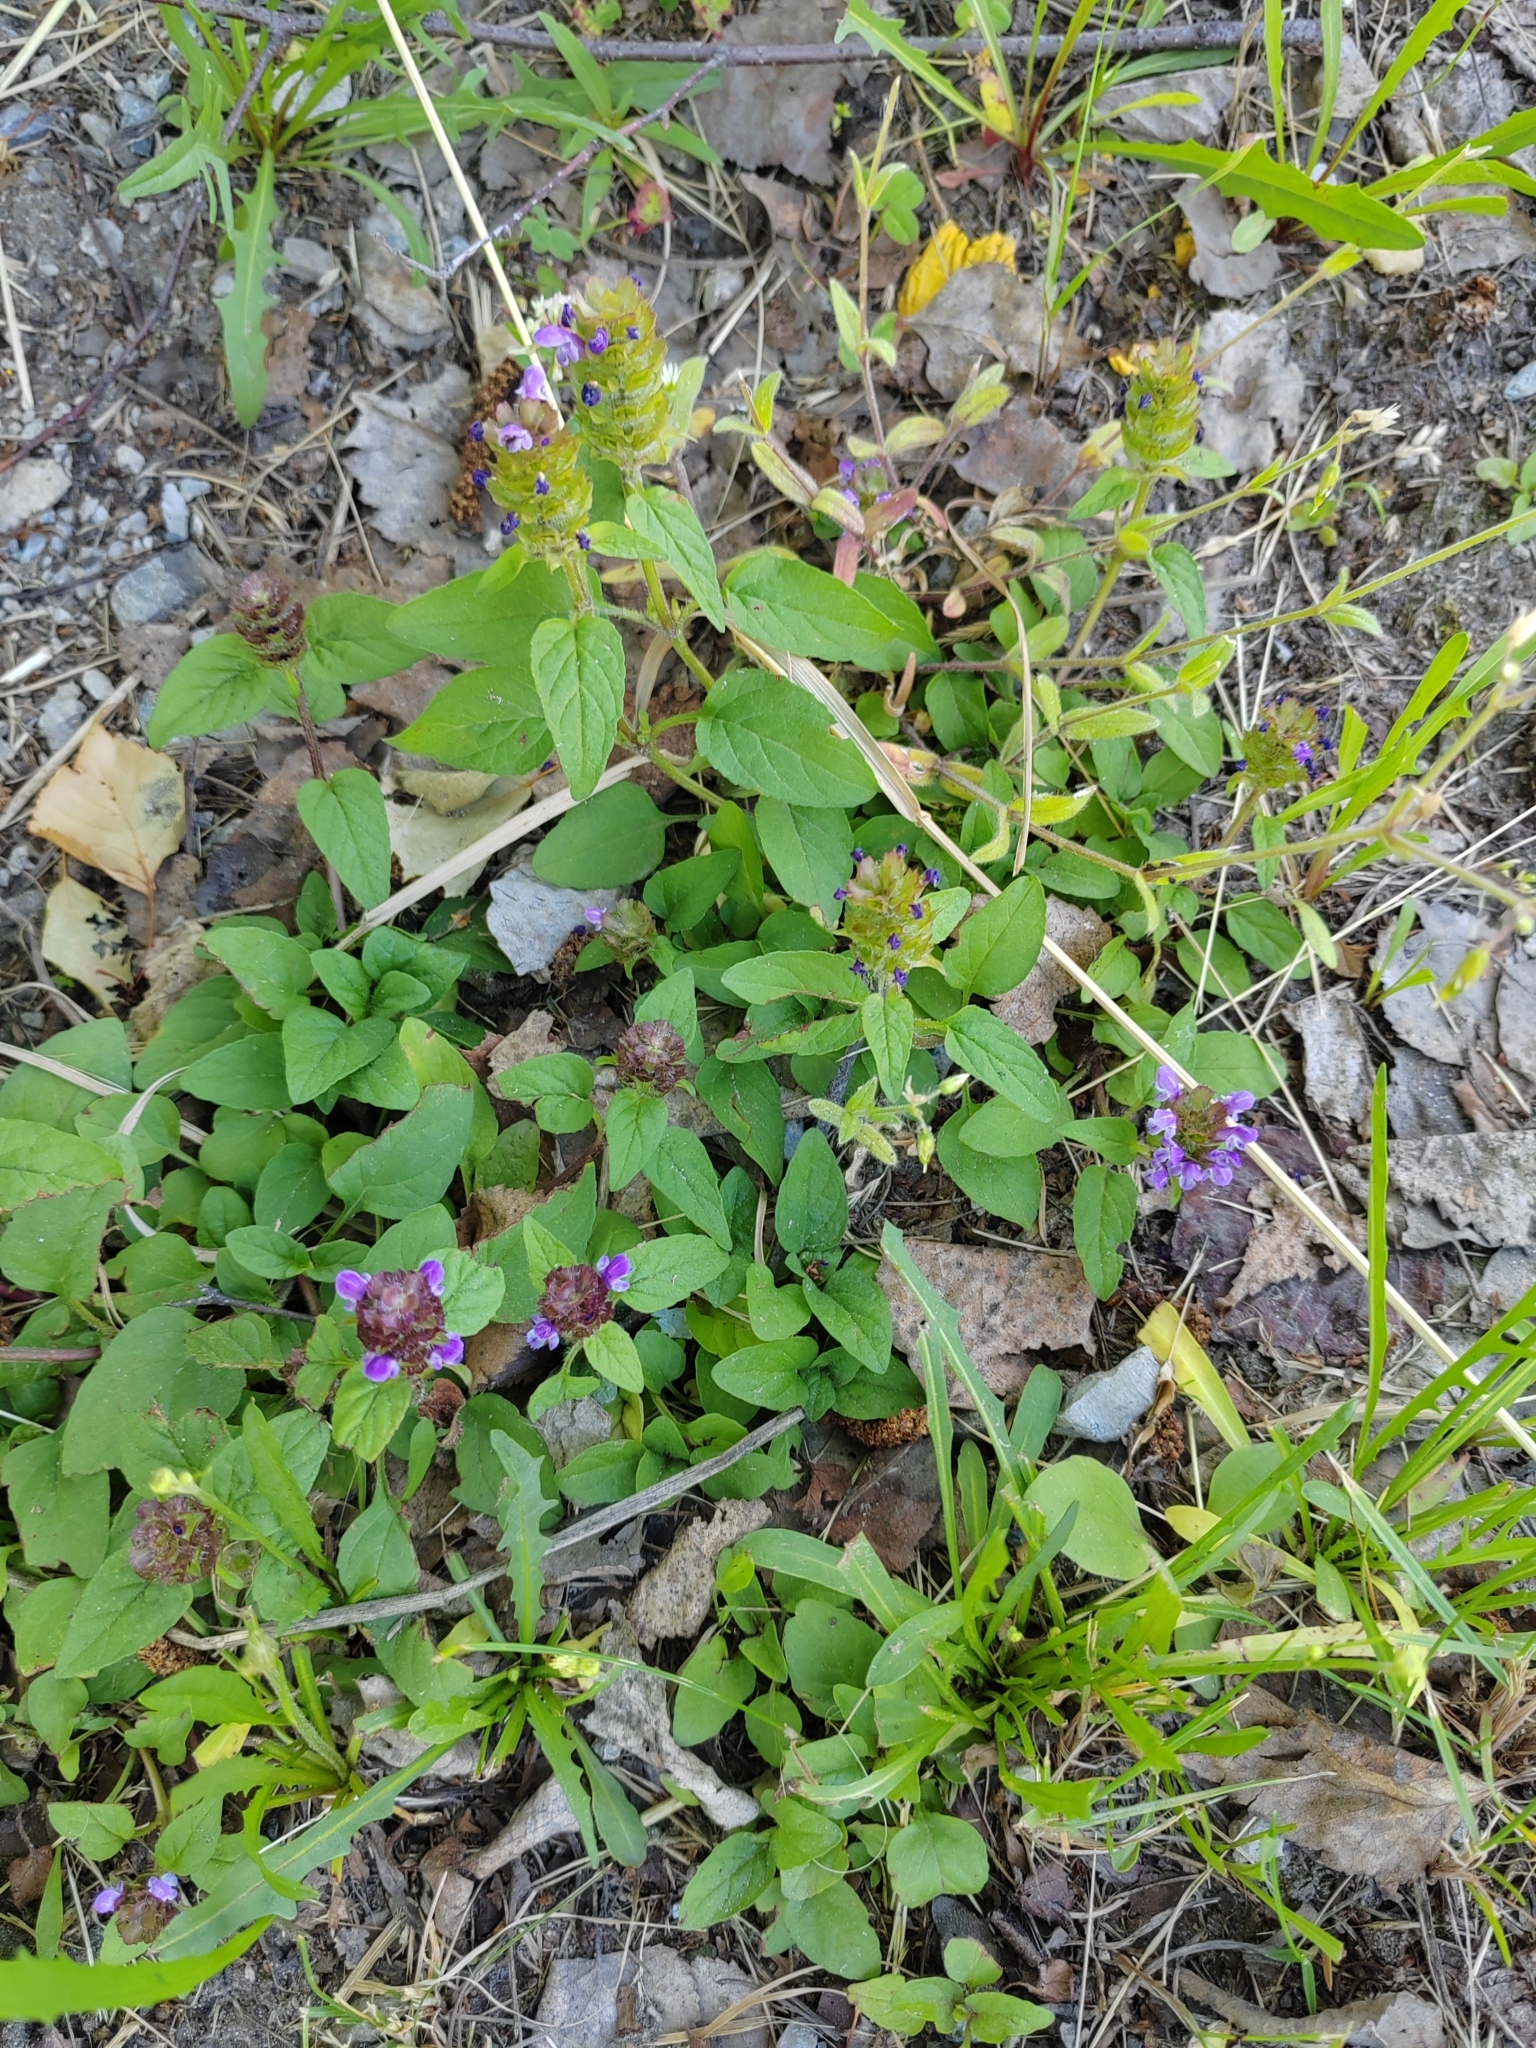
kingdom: Plantae
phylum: Tracheophyta
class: Magnoliopsida
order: Lamiales
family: Lamiaceae
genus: Prunella
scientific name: Prunella vulgaris
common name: Heal-all
